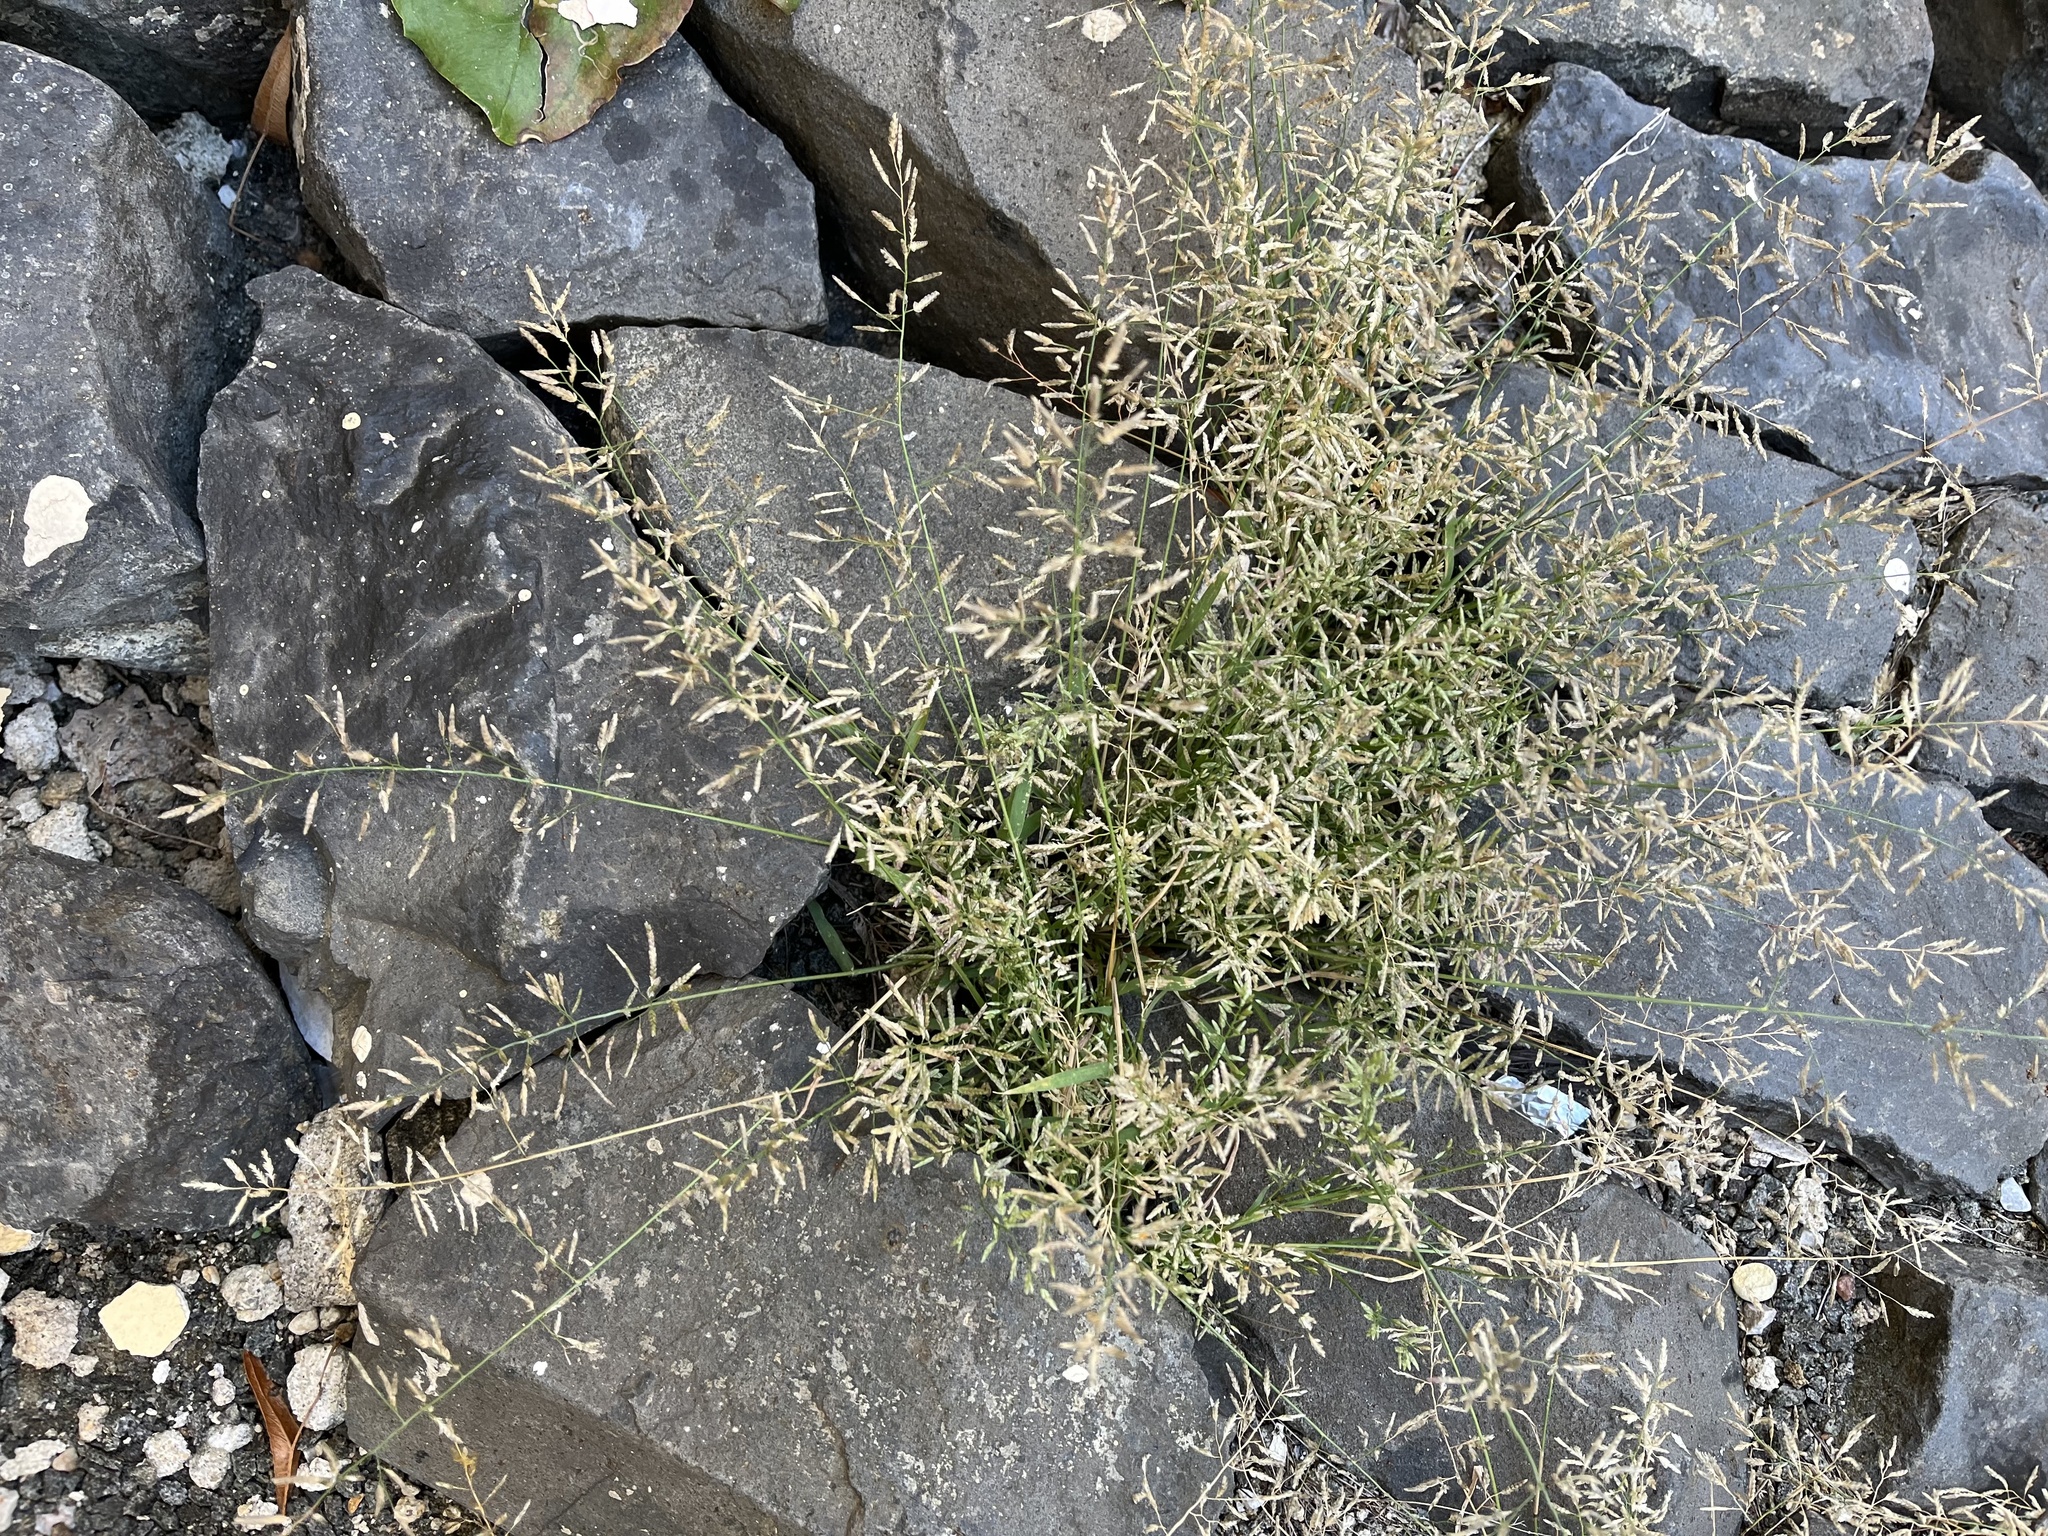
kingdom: Plantae
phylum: Tracheophyta
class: Liliopsida
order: Poales
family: Poaceae
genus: Eragrostis
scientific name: Eragrostis minor
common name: Small love-grass
